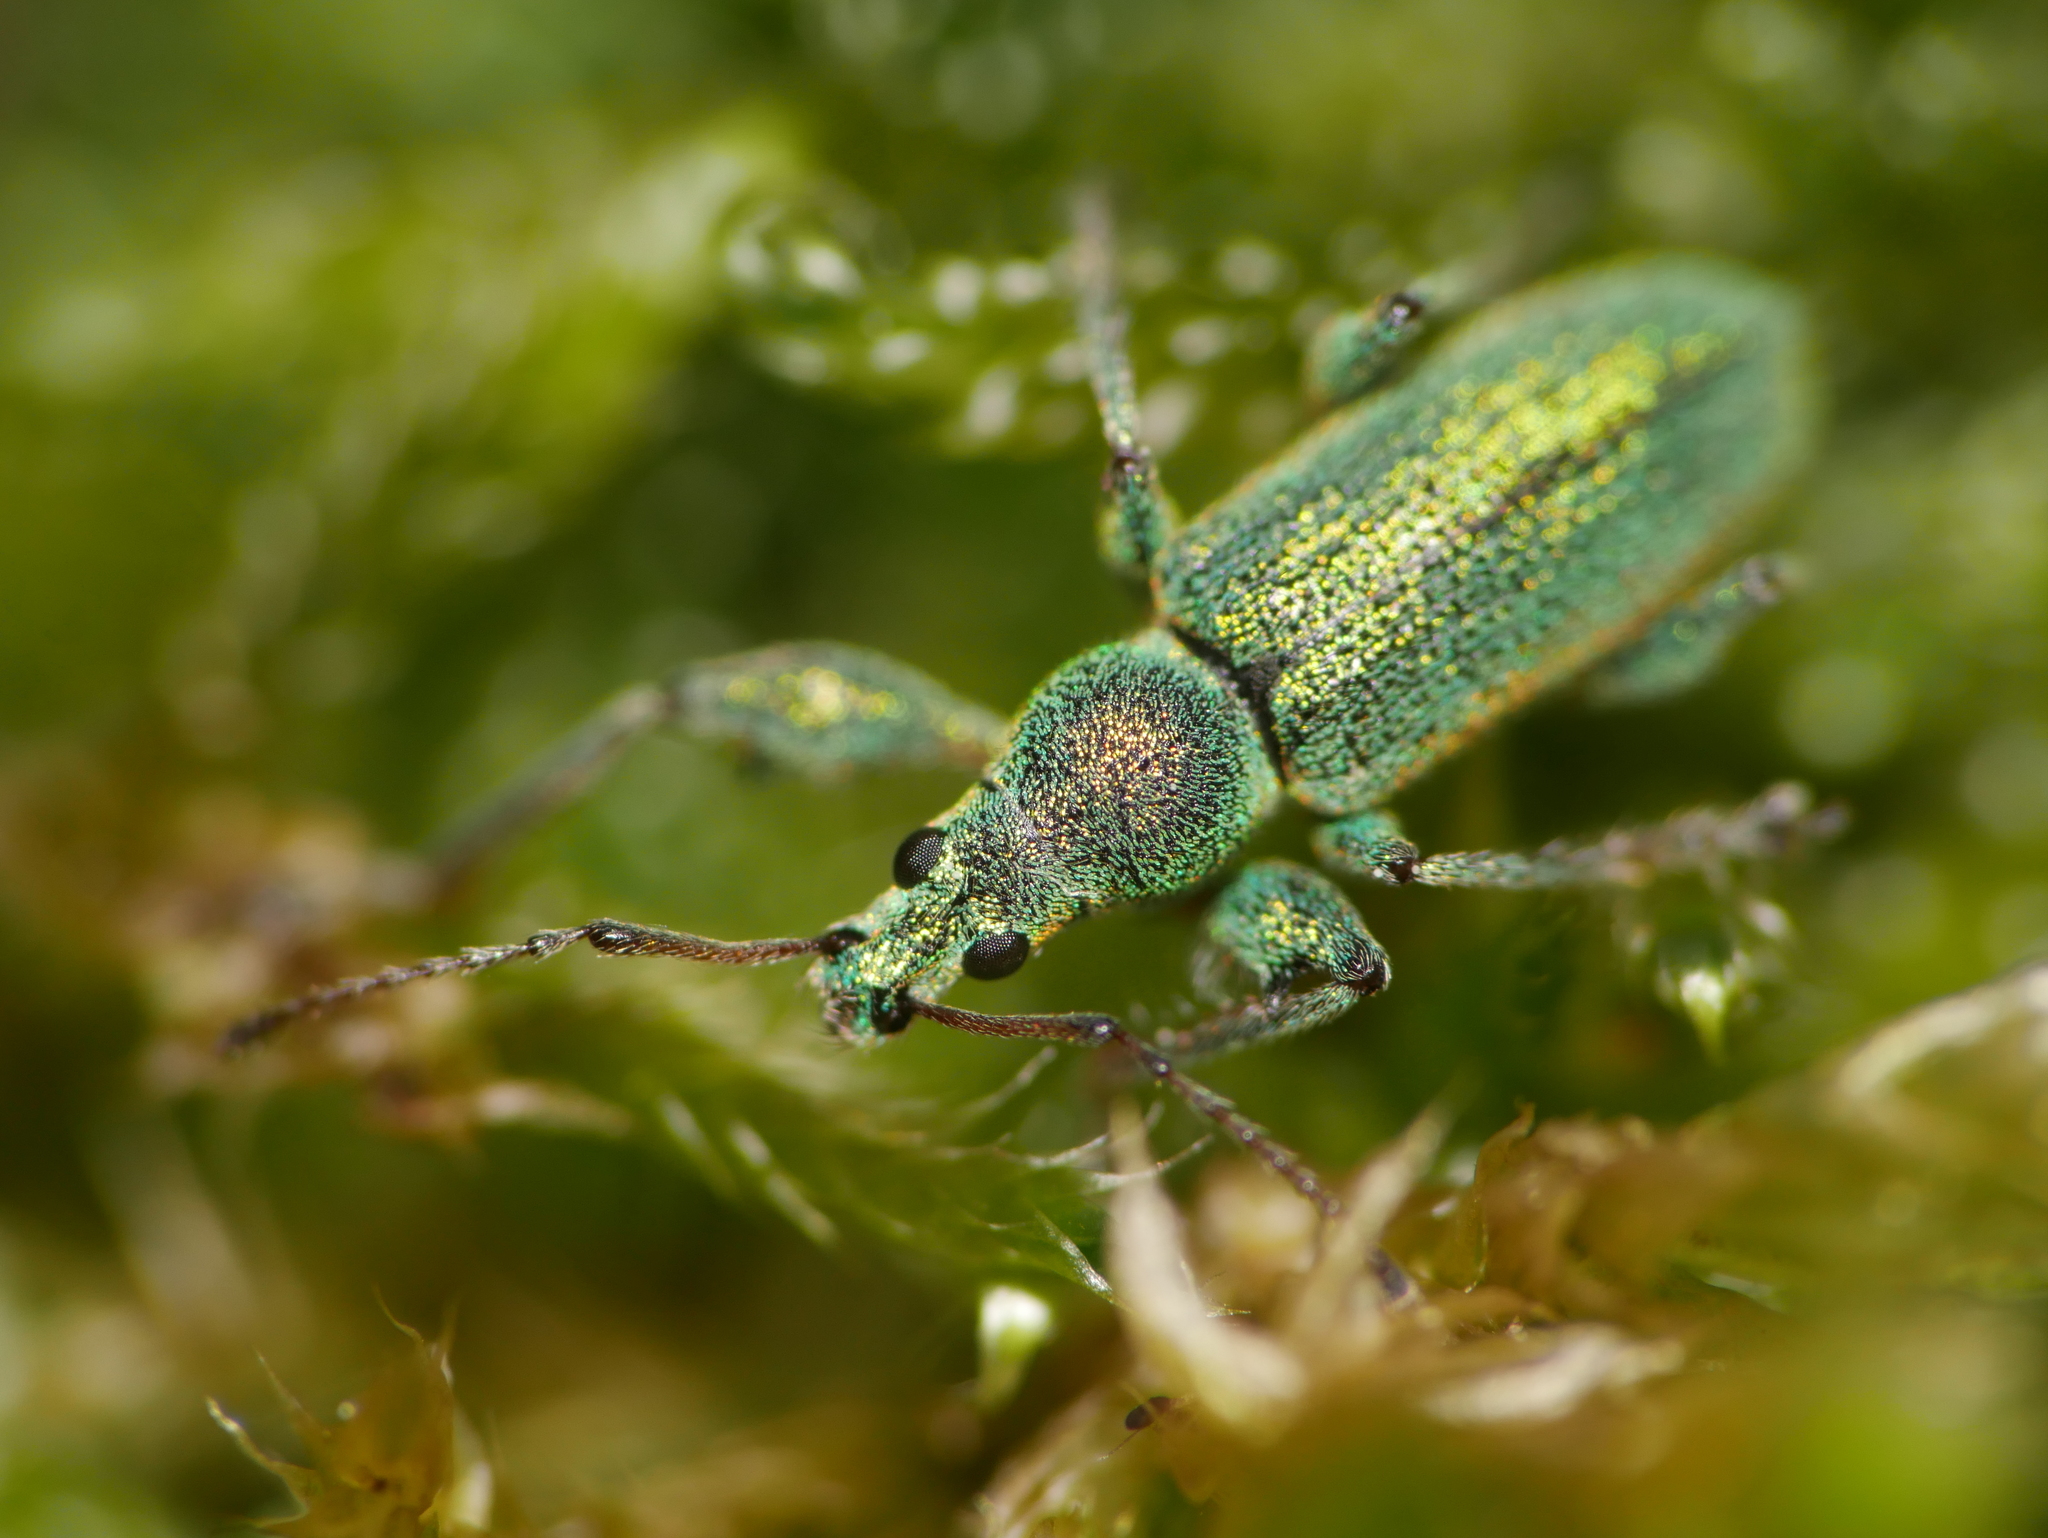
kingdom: Animalia
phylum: Arthropoda
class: Insecta
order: Coleoptera
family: Curculionidae
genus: Phyllobius
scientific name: Phyllobius arborator
